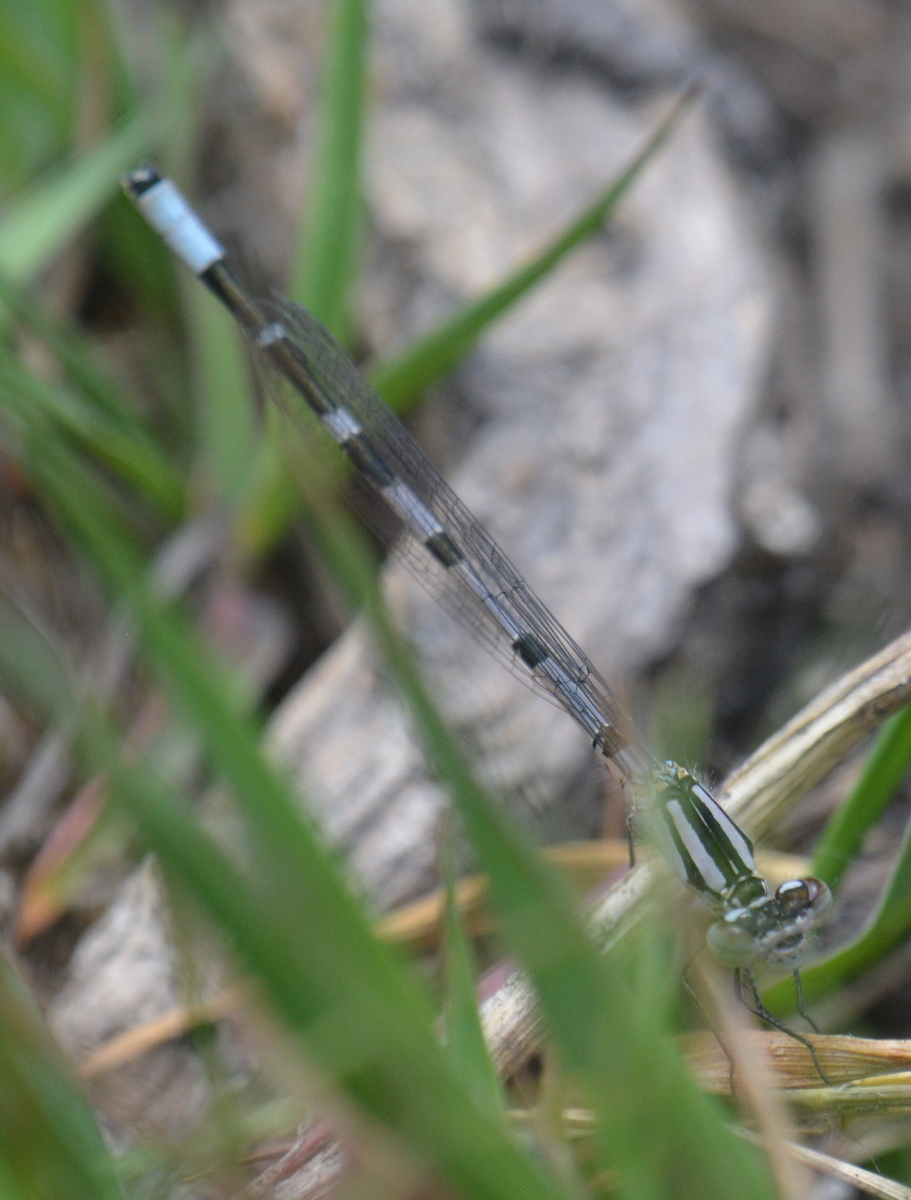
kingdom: Animalia
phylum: Arthropoda
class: Insecta
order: Odonata
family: Coenagrionidae
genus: Enallagma
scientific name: Enallagma cyathigerum
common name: Common blue damselfly
